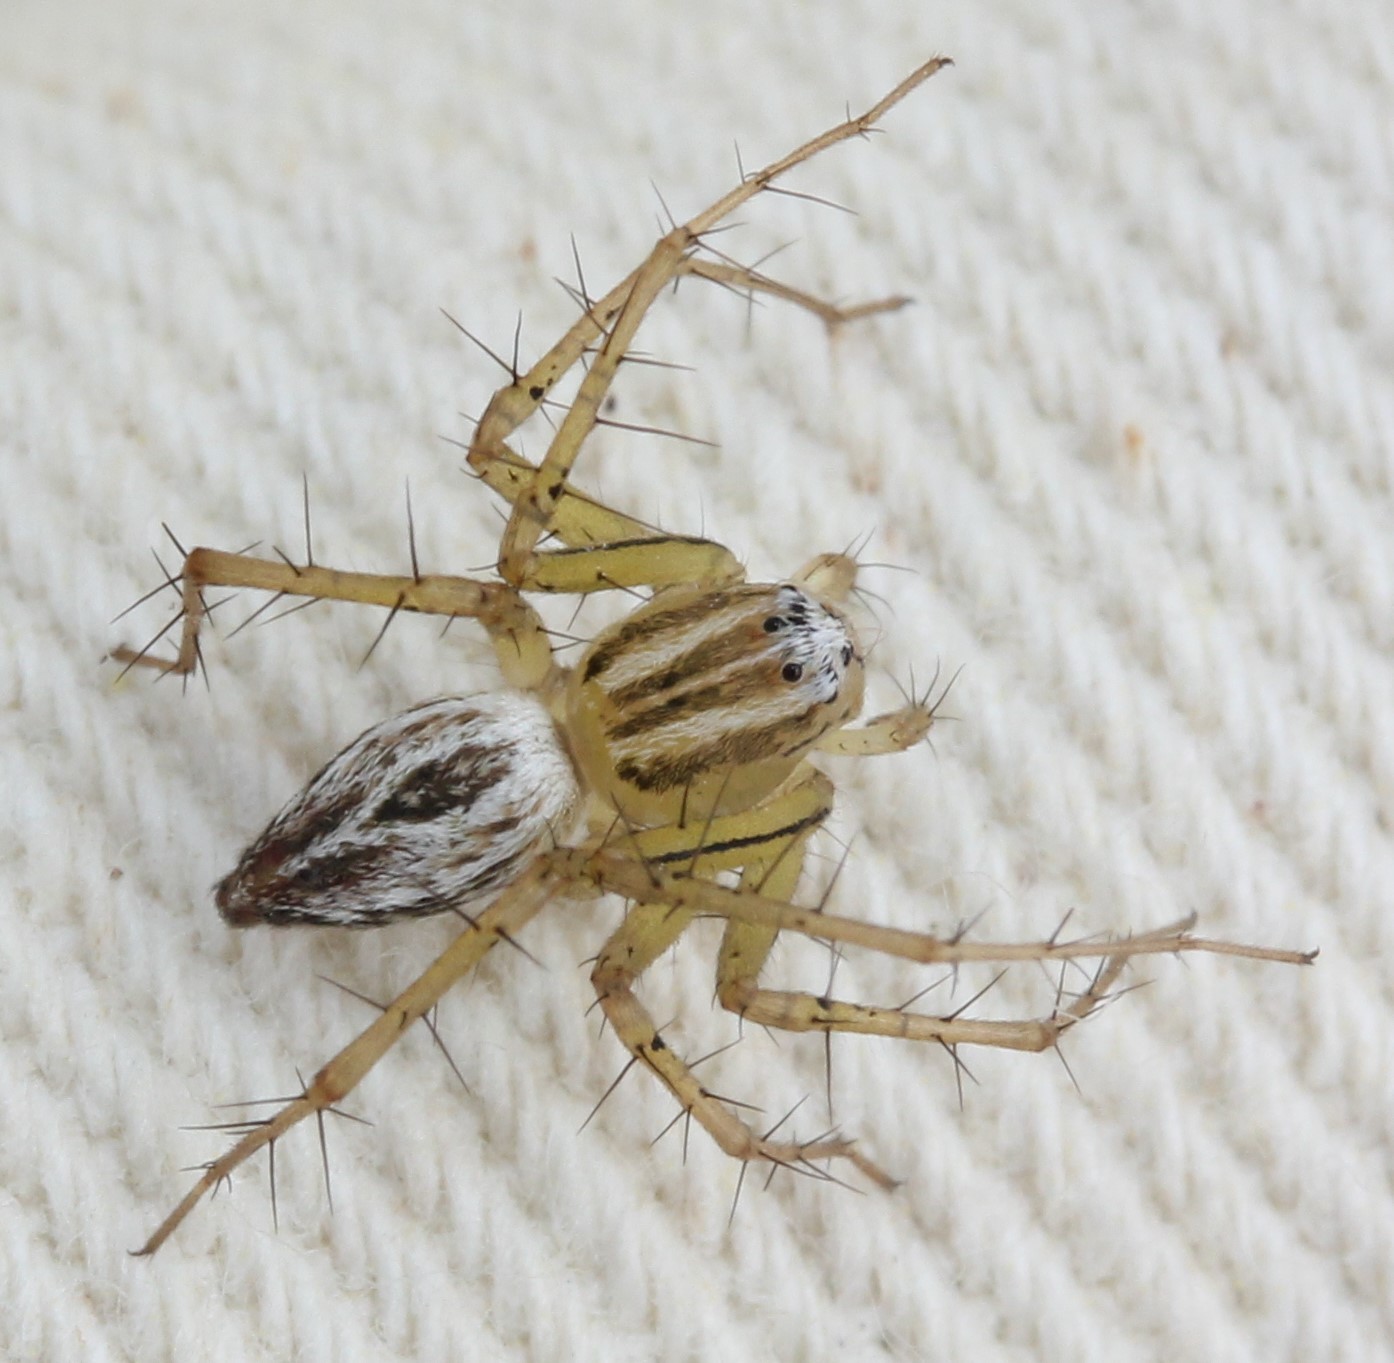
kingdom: Animalia
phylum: Arthropoda
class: Arachnida
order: Araneae
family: Oxyopidae
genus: Oxyopes
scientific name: Oxyopes salticus
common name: Lynx spiders
